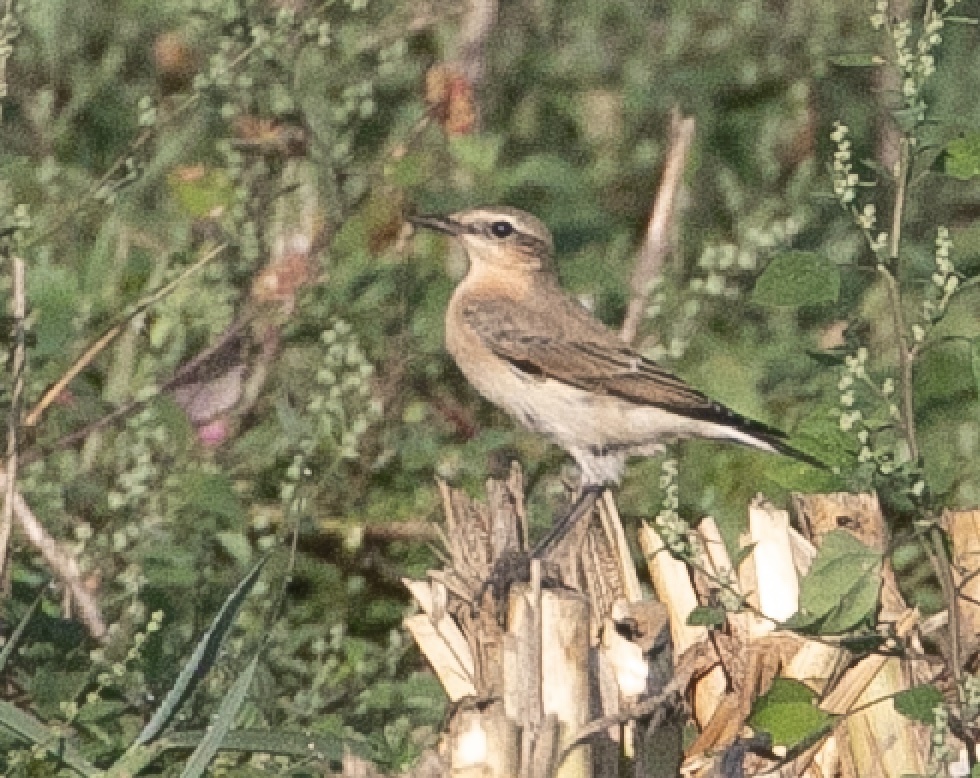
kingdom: Animalia
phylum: Chordata
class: Aves
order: Passeriformes
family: Muscicapidae
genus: Oenanthe
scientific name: Oenanthe oenanthe
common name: Northern wheatear
